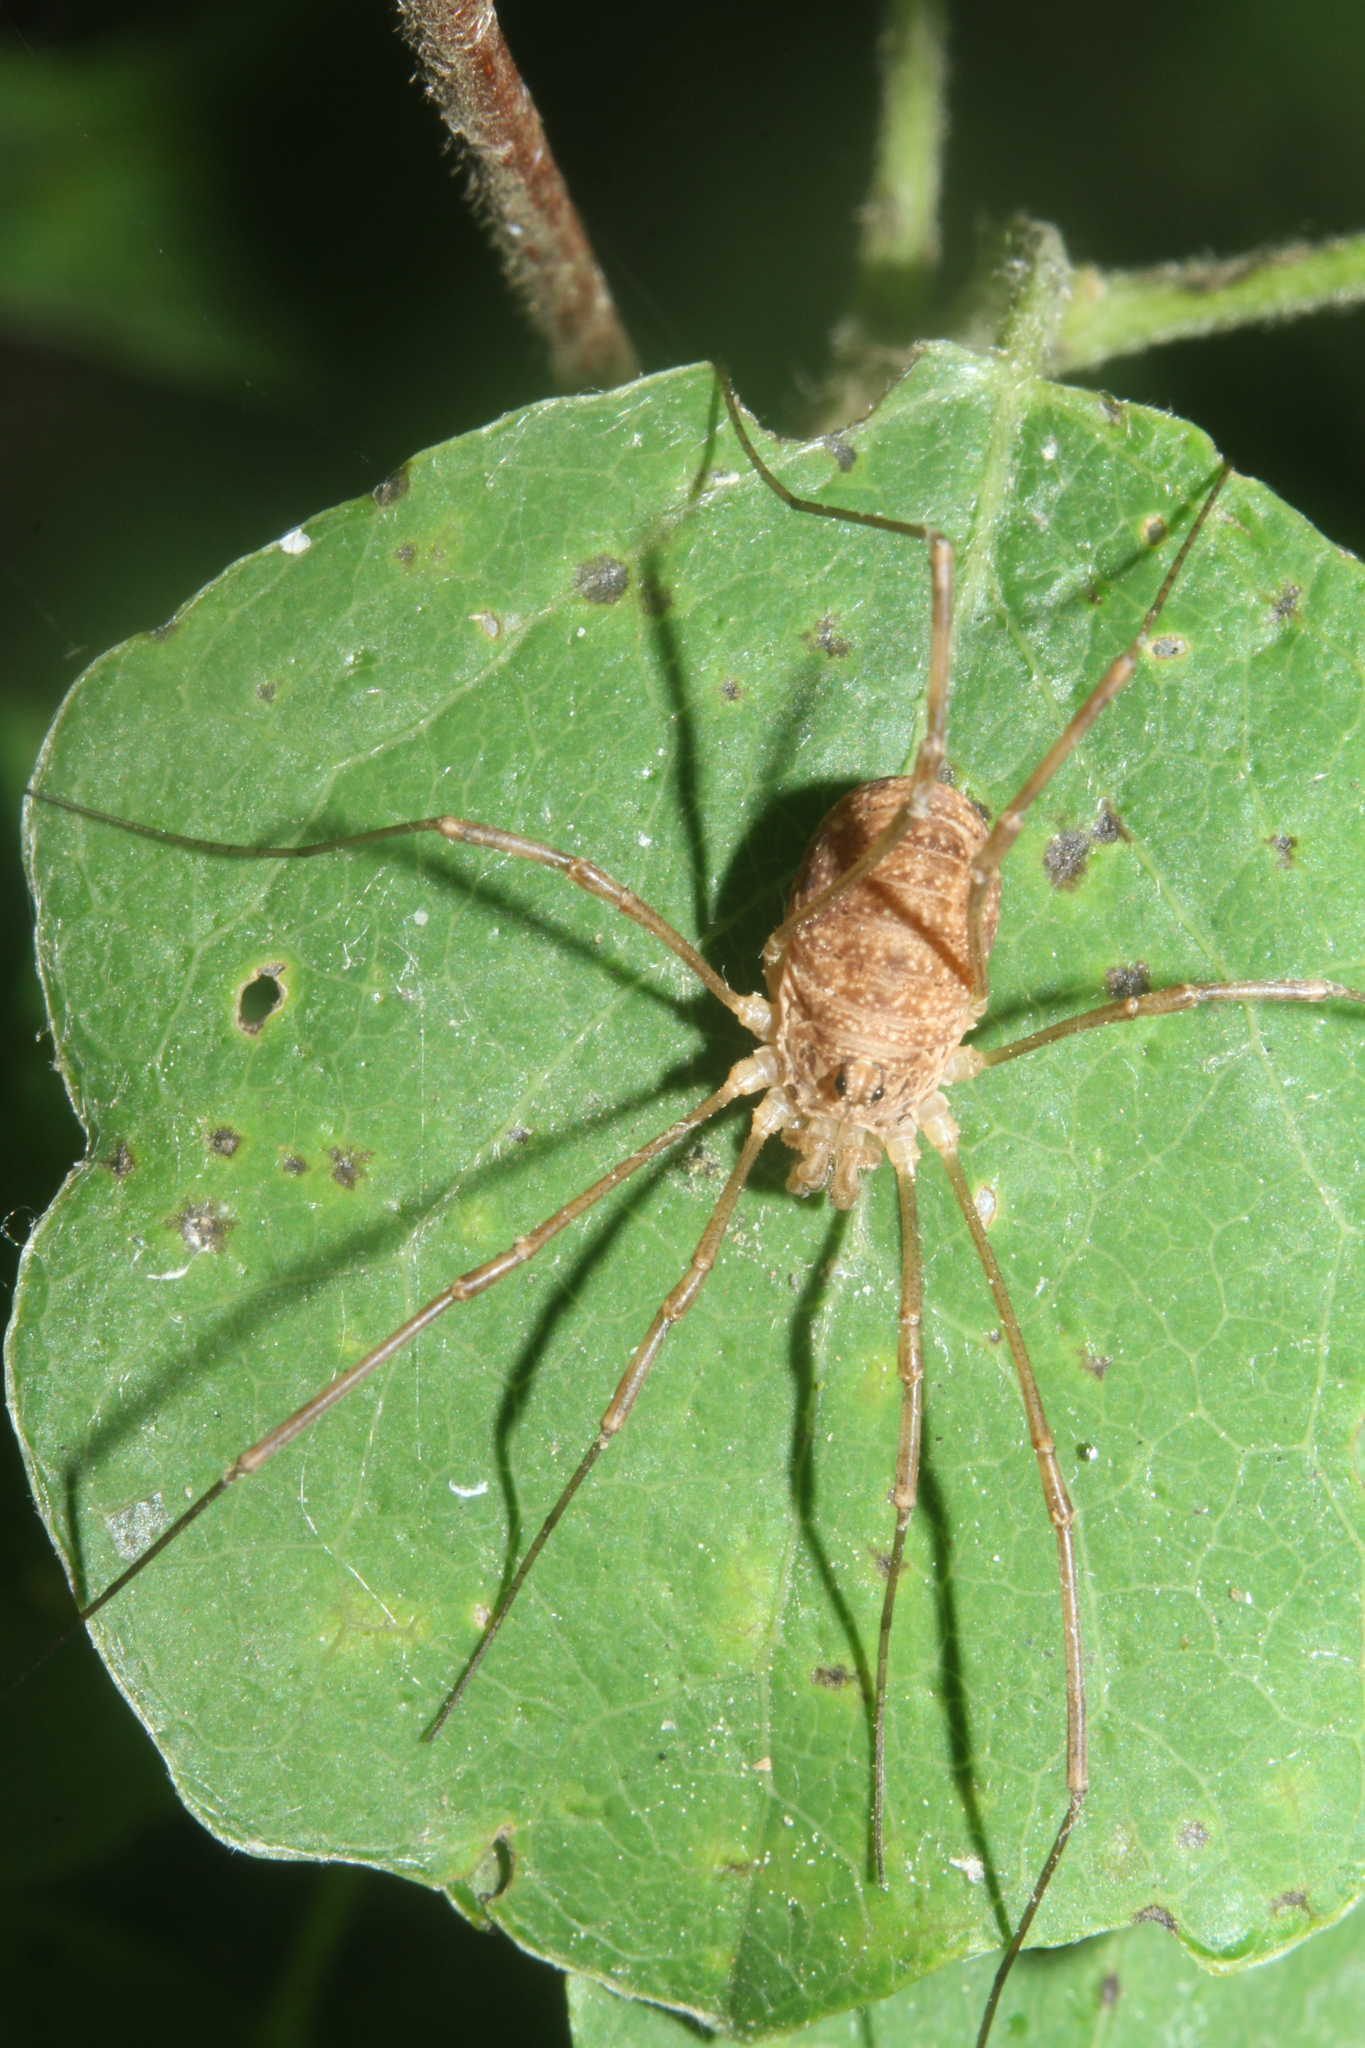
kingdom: Animalia
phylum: Arthropoda
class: Arachnida
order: Opiliones
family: Phalangiidae
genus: Rilaena
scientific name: Rilaena triangularis
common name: Spring harvestman
